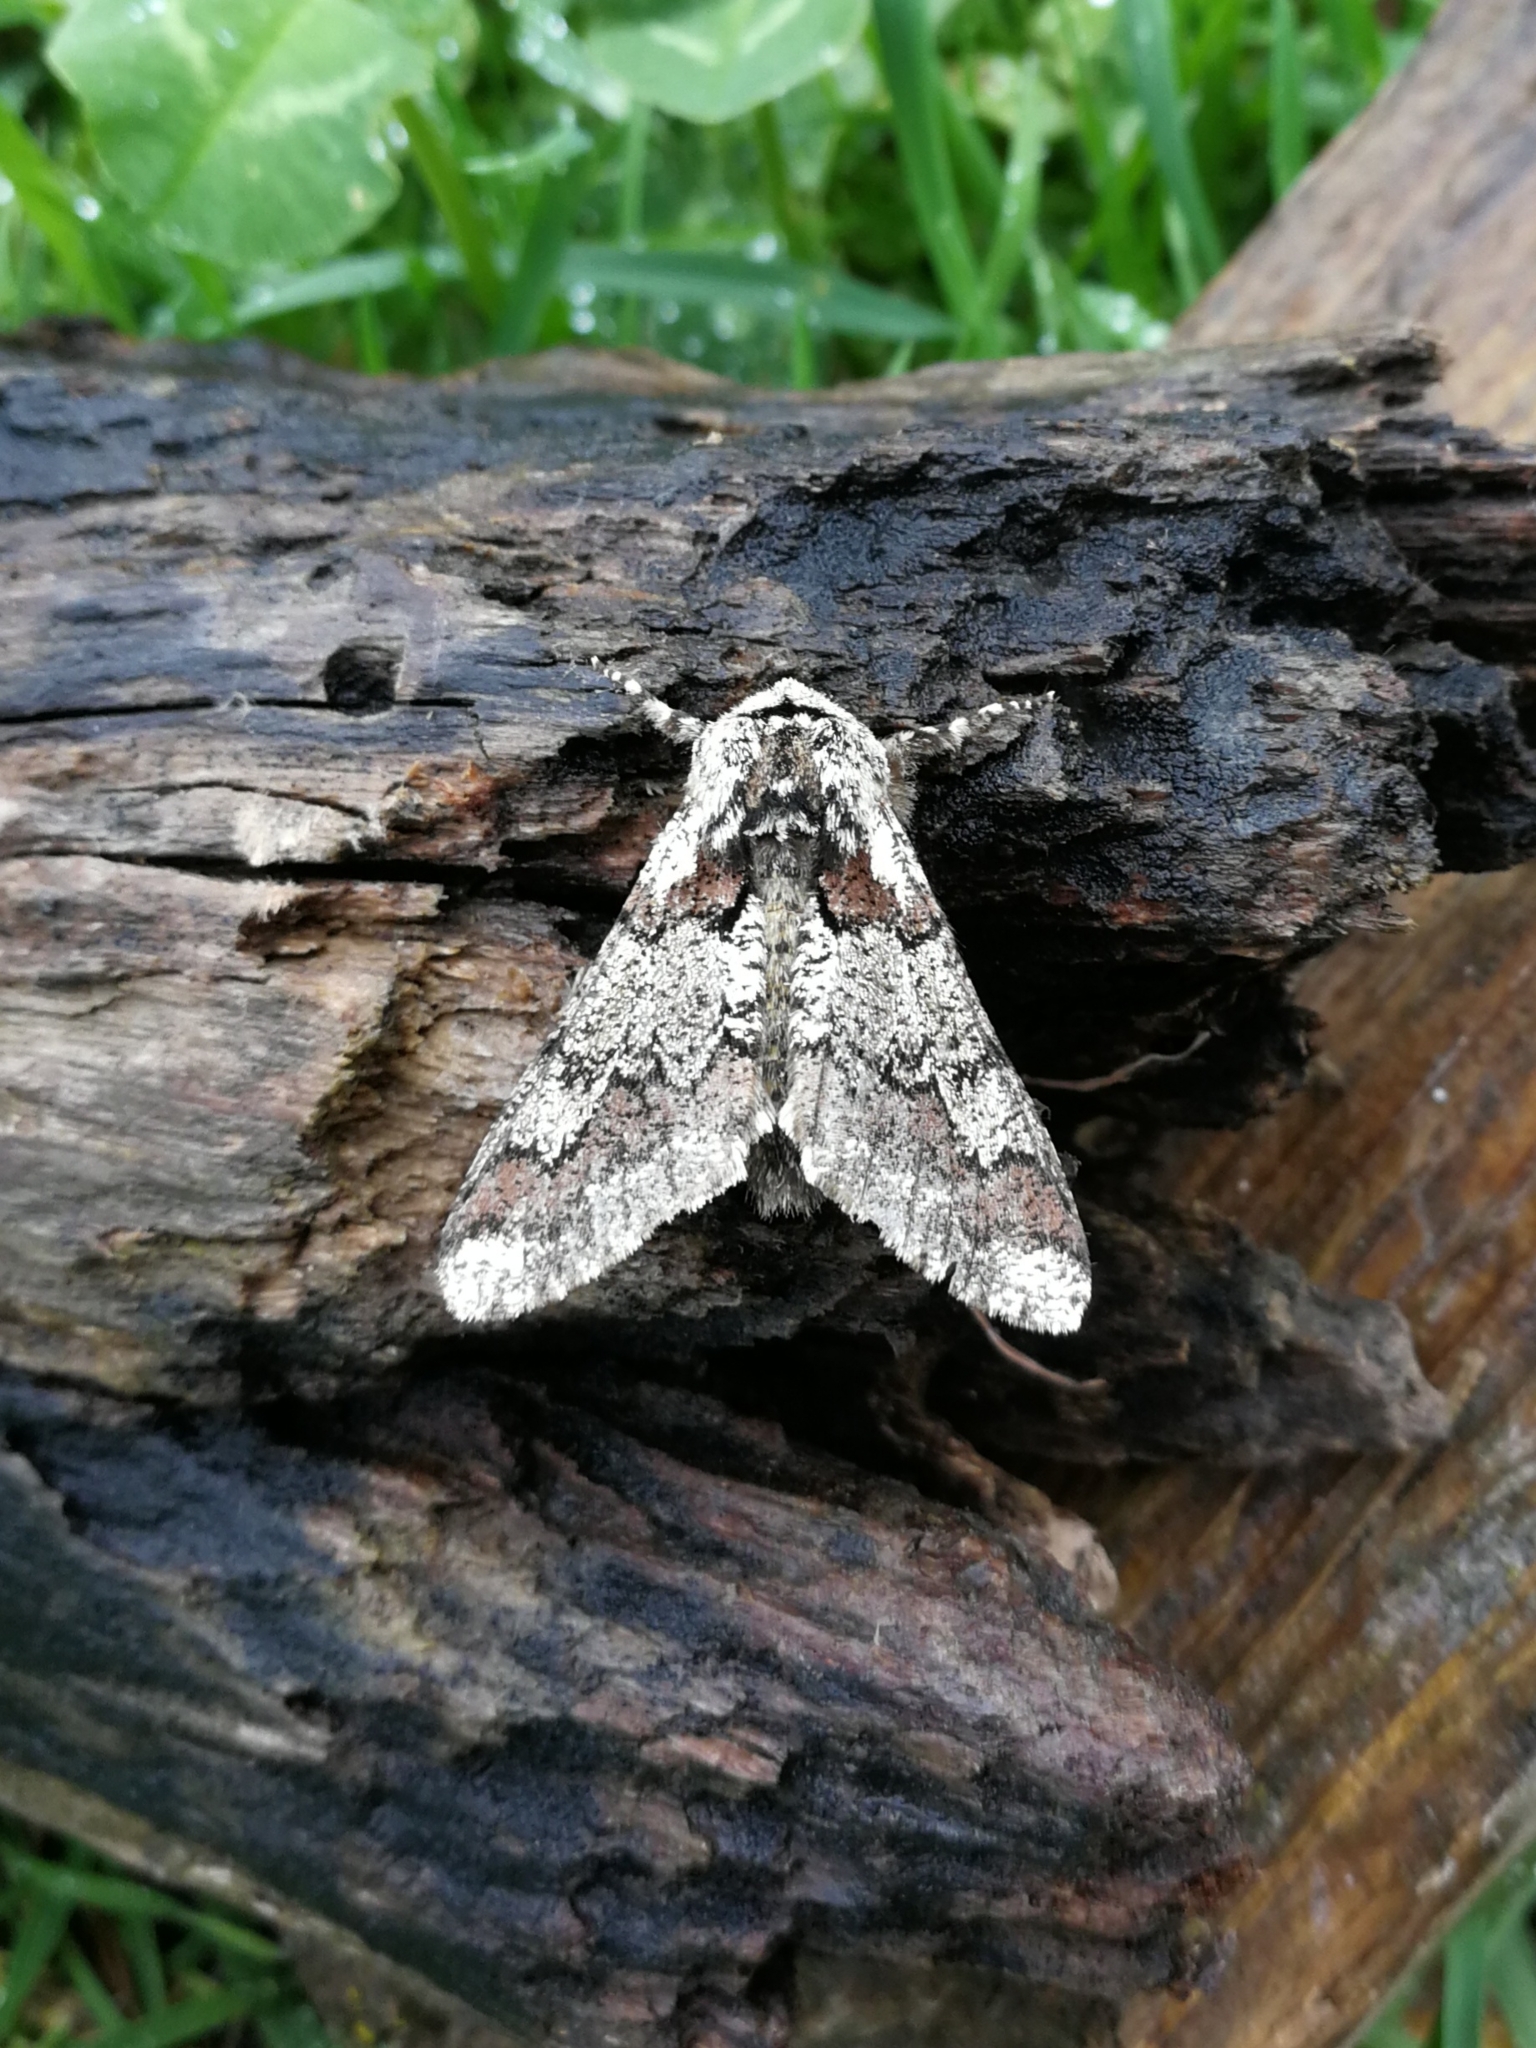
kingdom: Animalia
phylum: Arthropoda
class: Insecta
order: Lepidoptera
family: Geometridae
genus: Biston
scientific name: Biston strataria
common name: Oak beauty
